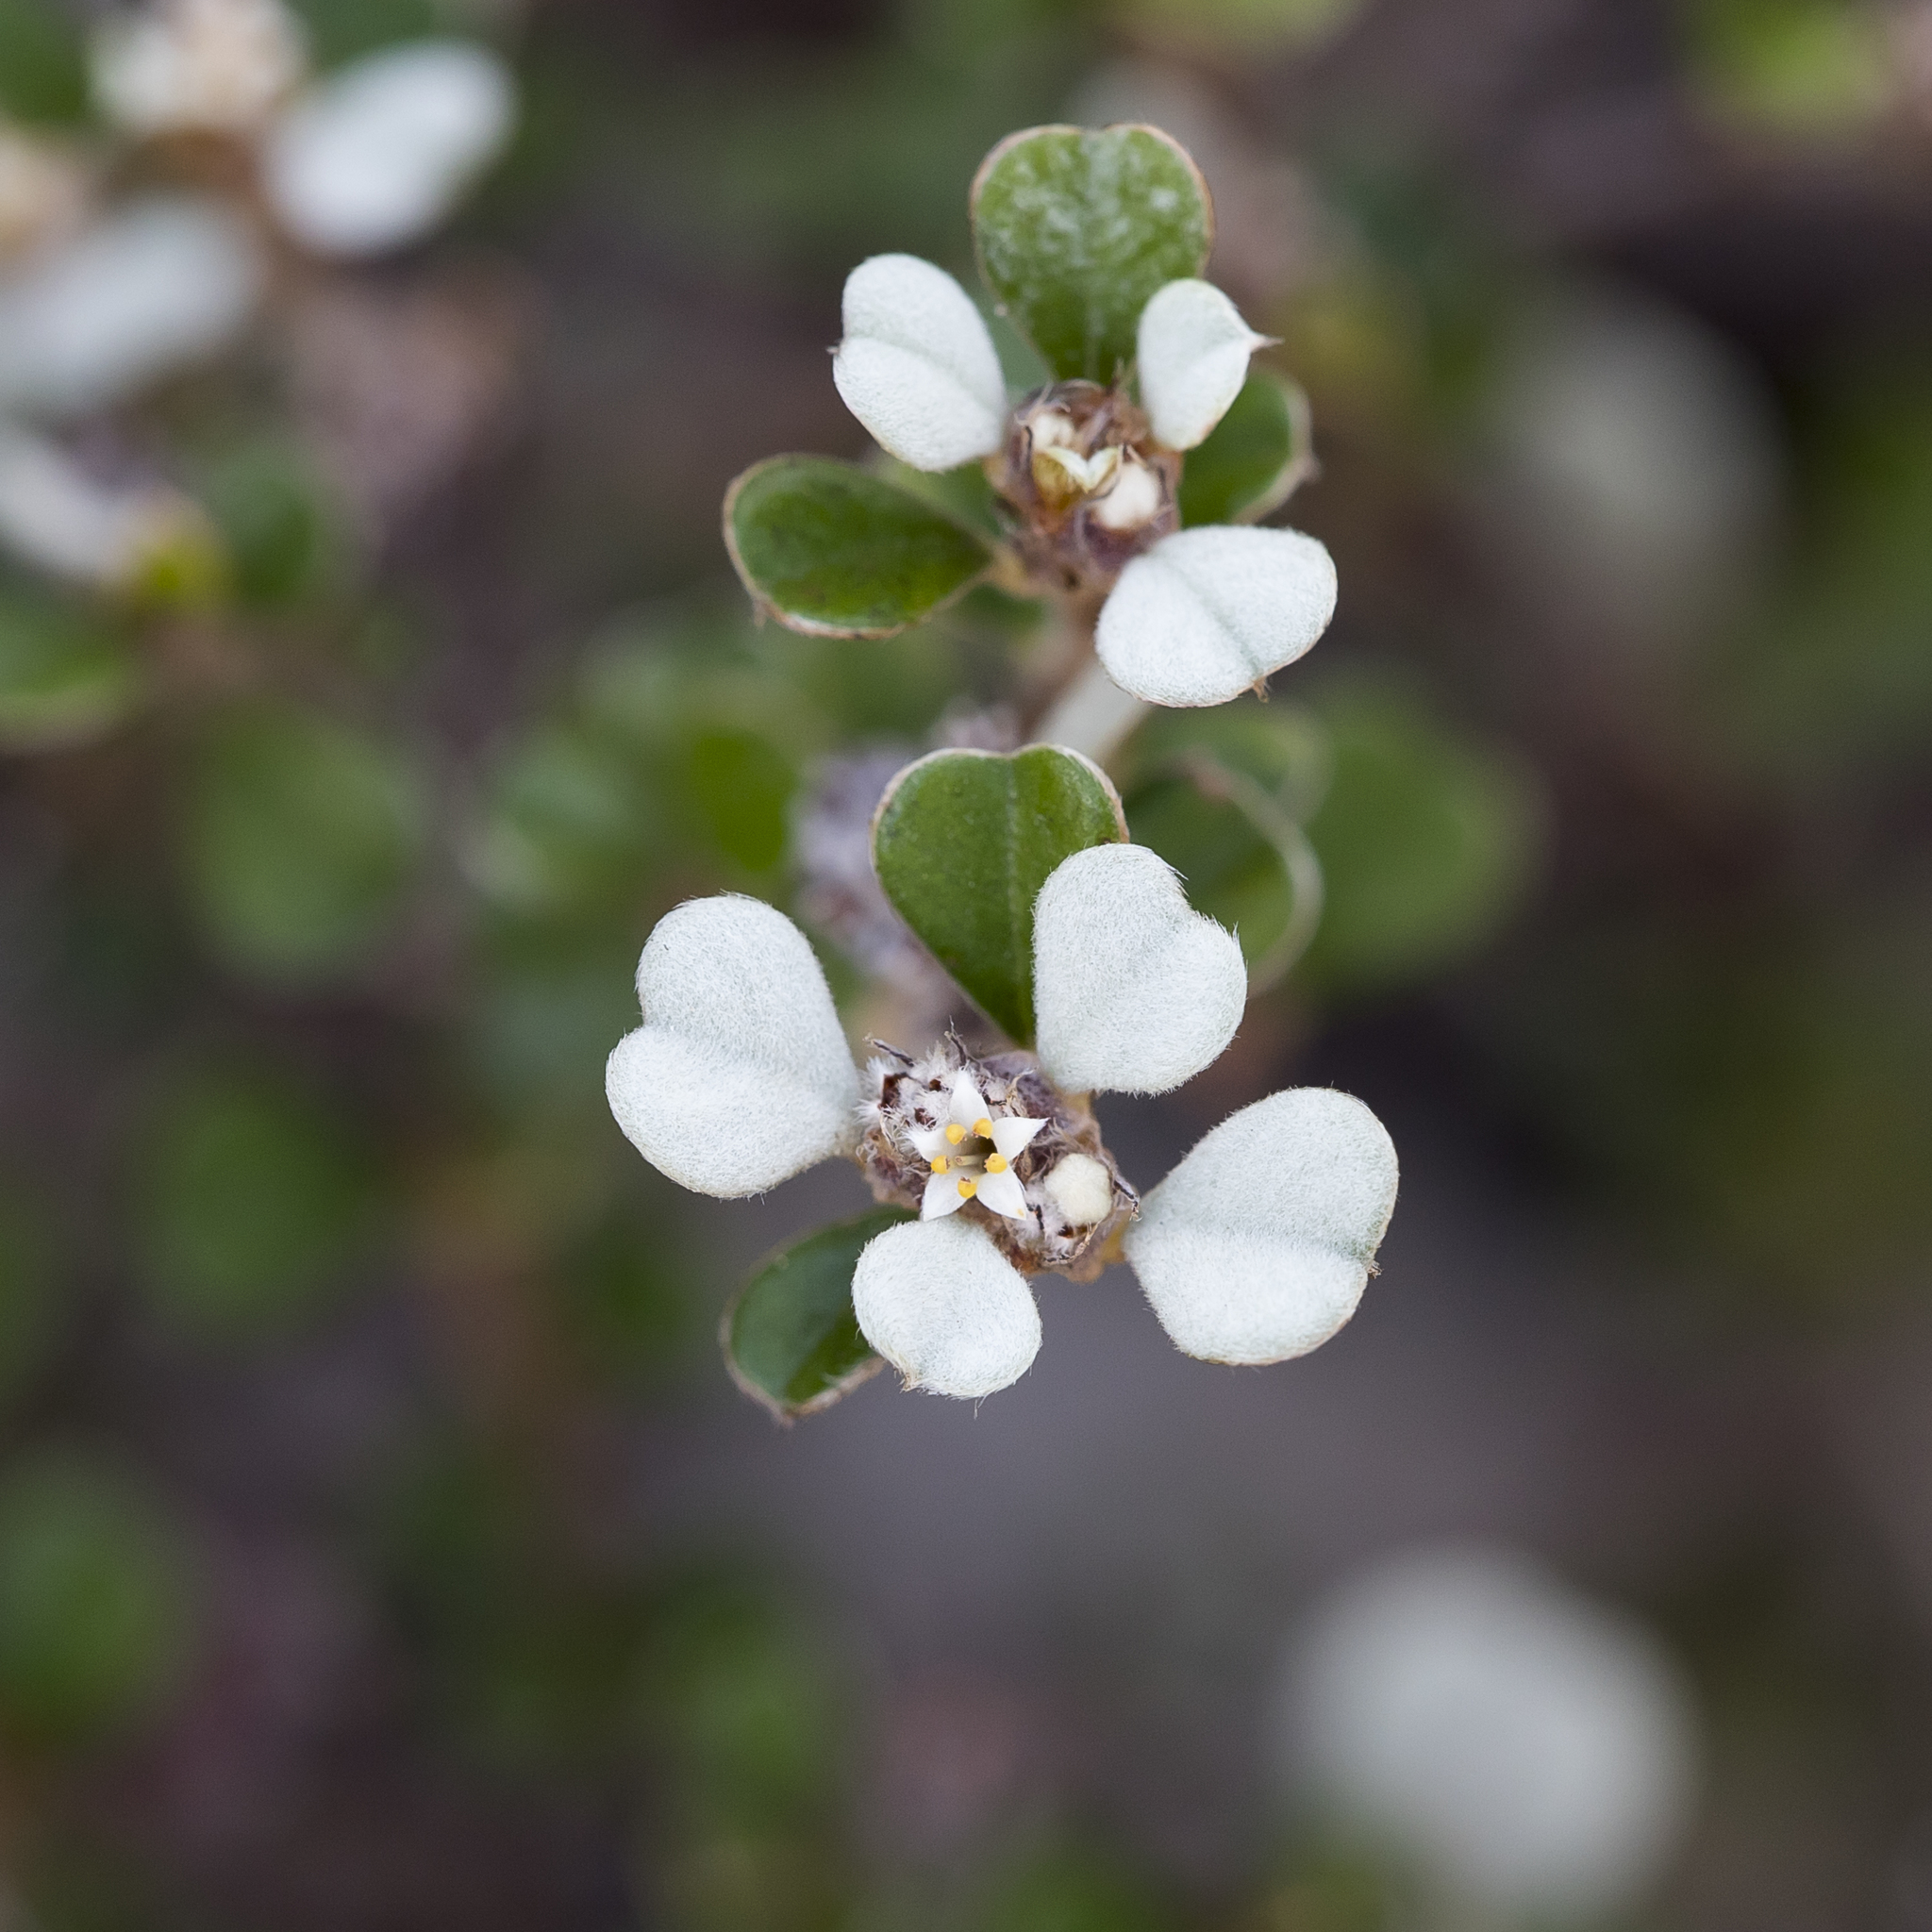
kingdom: Plantae
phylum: Tracheophyta
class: Magnoliopsida
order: Rosales
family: Rhamnaceae
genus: Cryptandra
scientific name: Cryptandra leucophracta
